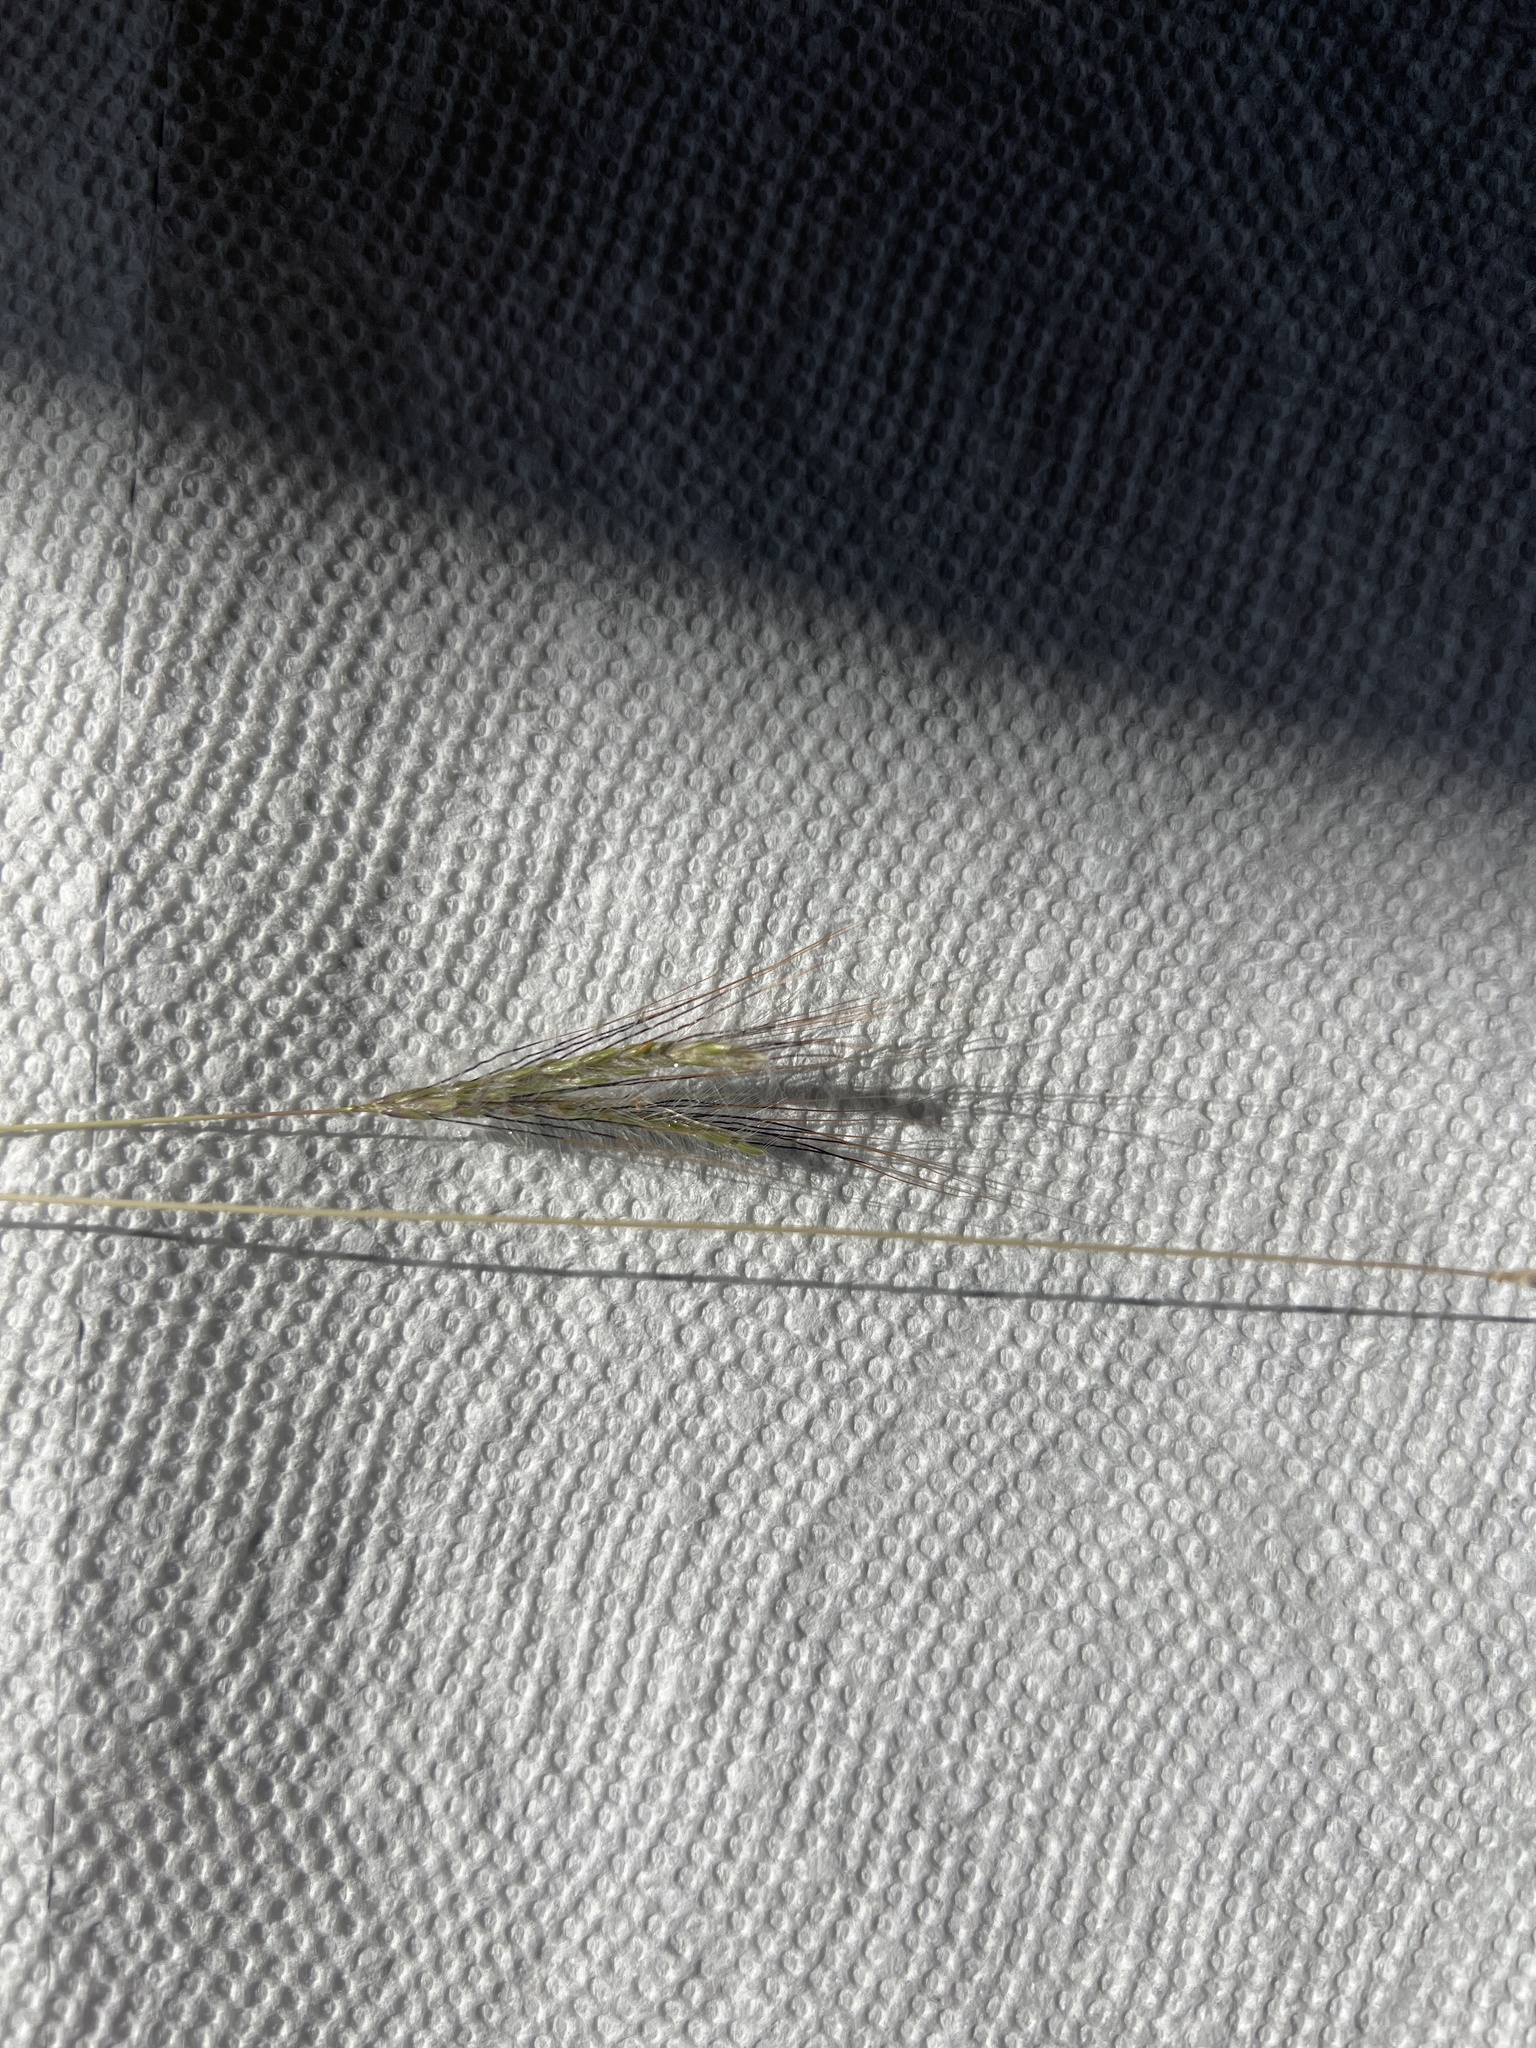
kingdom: Plantae
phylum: Tracheophyta
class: Liliopsida
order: Poales
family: Poaceae
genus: Dichanthium
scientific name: Dichanthium sericeum
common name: Silky bluestem
